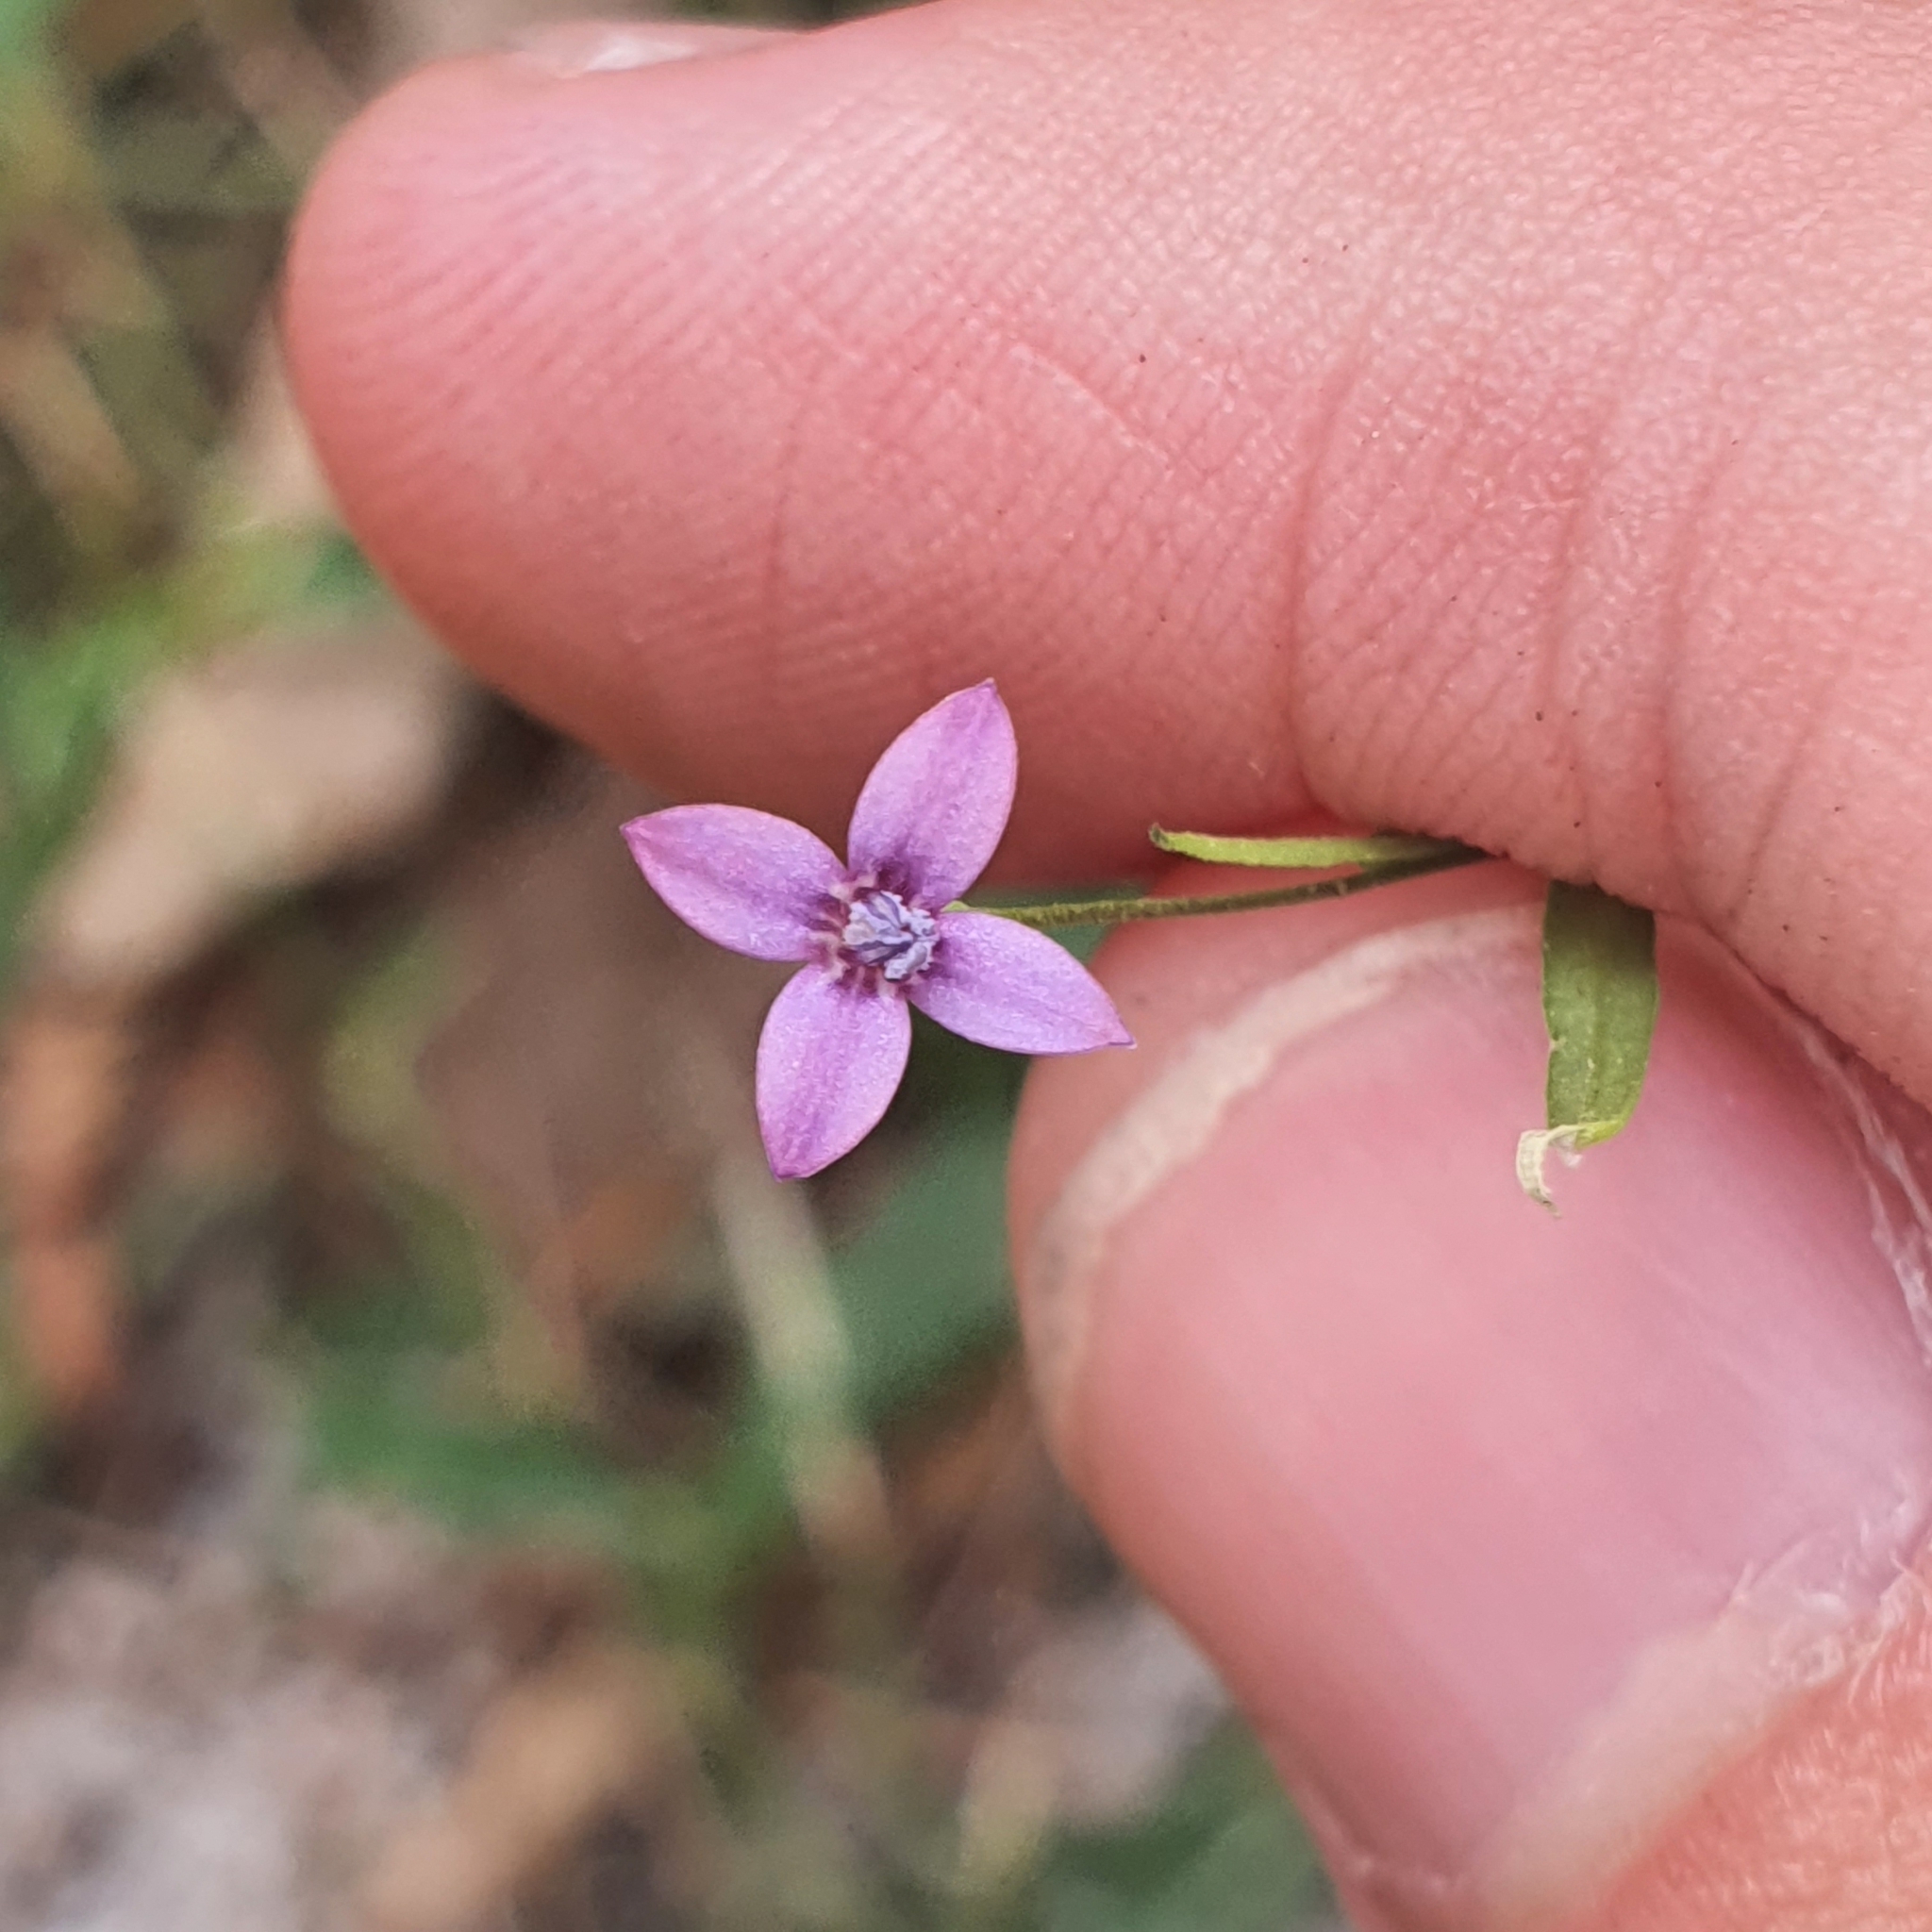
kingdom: Plantae
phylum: Tracheophyta
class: Magnoliopsida
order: Gentianales
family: Rubiaceae
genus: Oldenlandia
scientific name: Oldenlandia affinis
